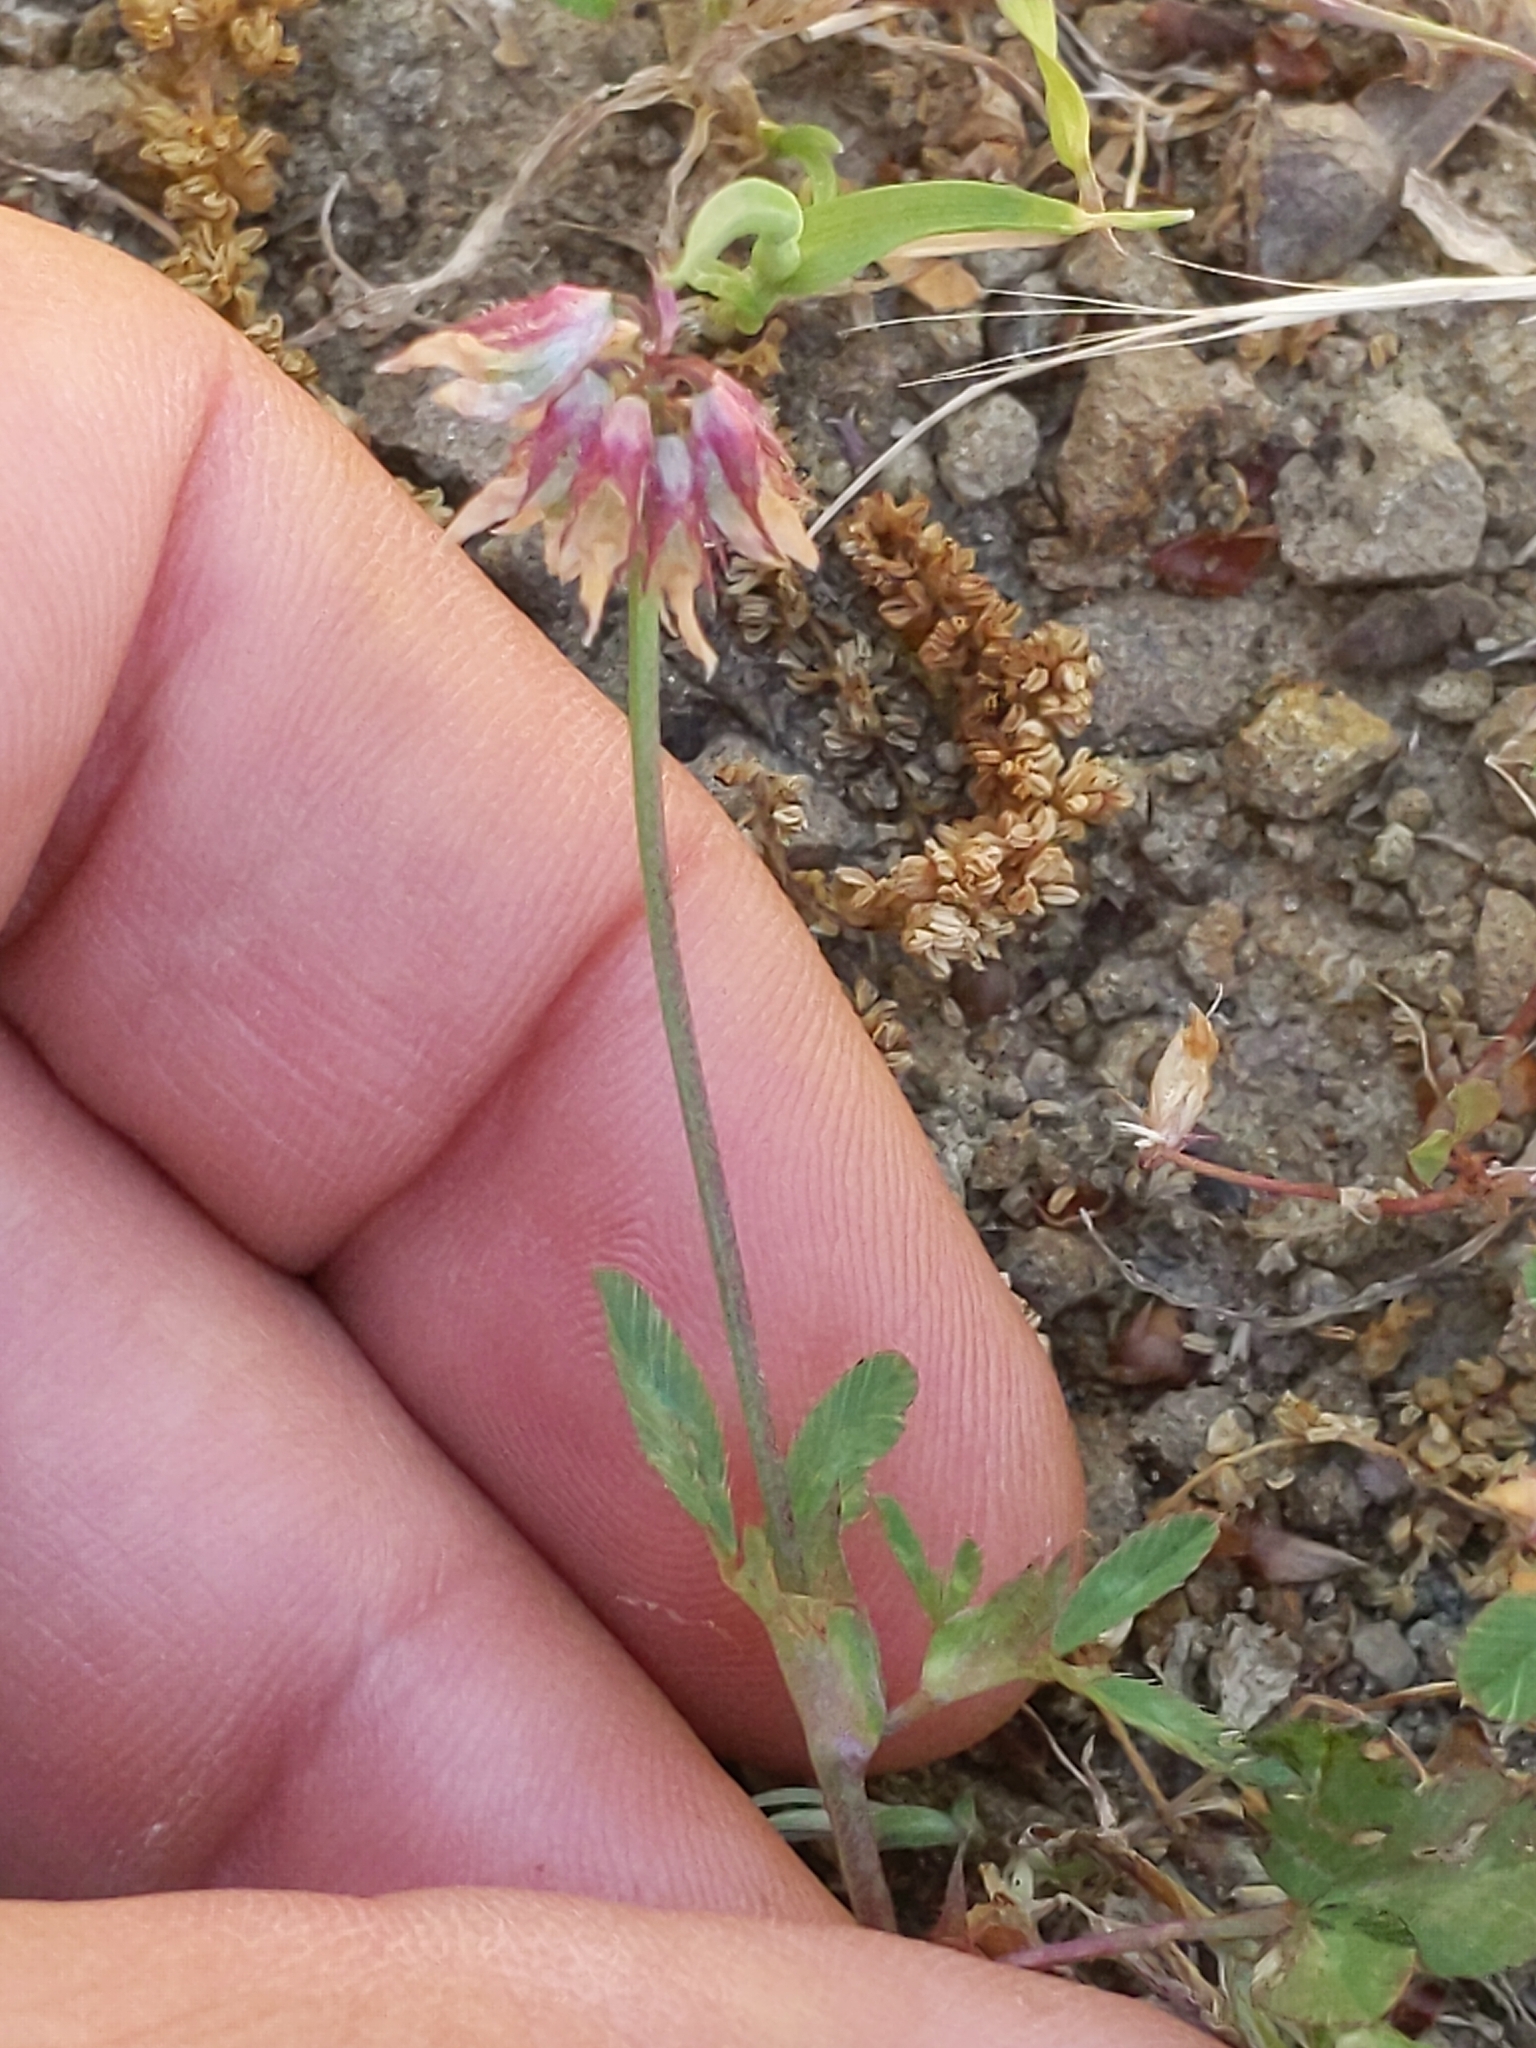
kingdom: Plantae
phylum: Tracheophyta
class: Magnoliopsida
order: Fabales
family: Fabaceae
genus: Trifolium
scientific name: Trifolium ciliolatum
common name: Foothill clover
